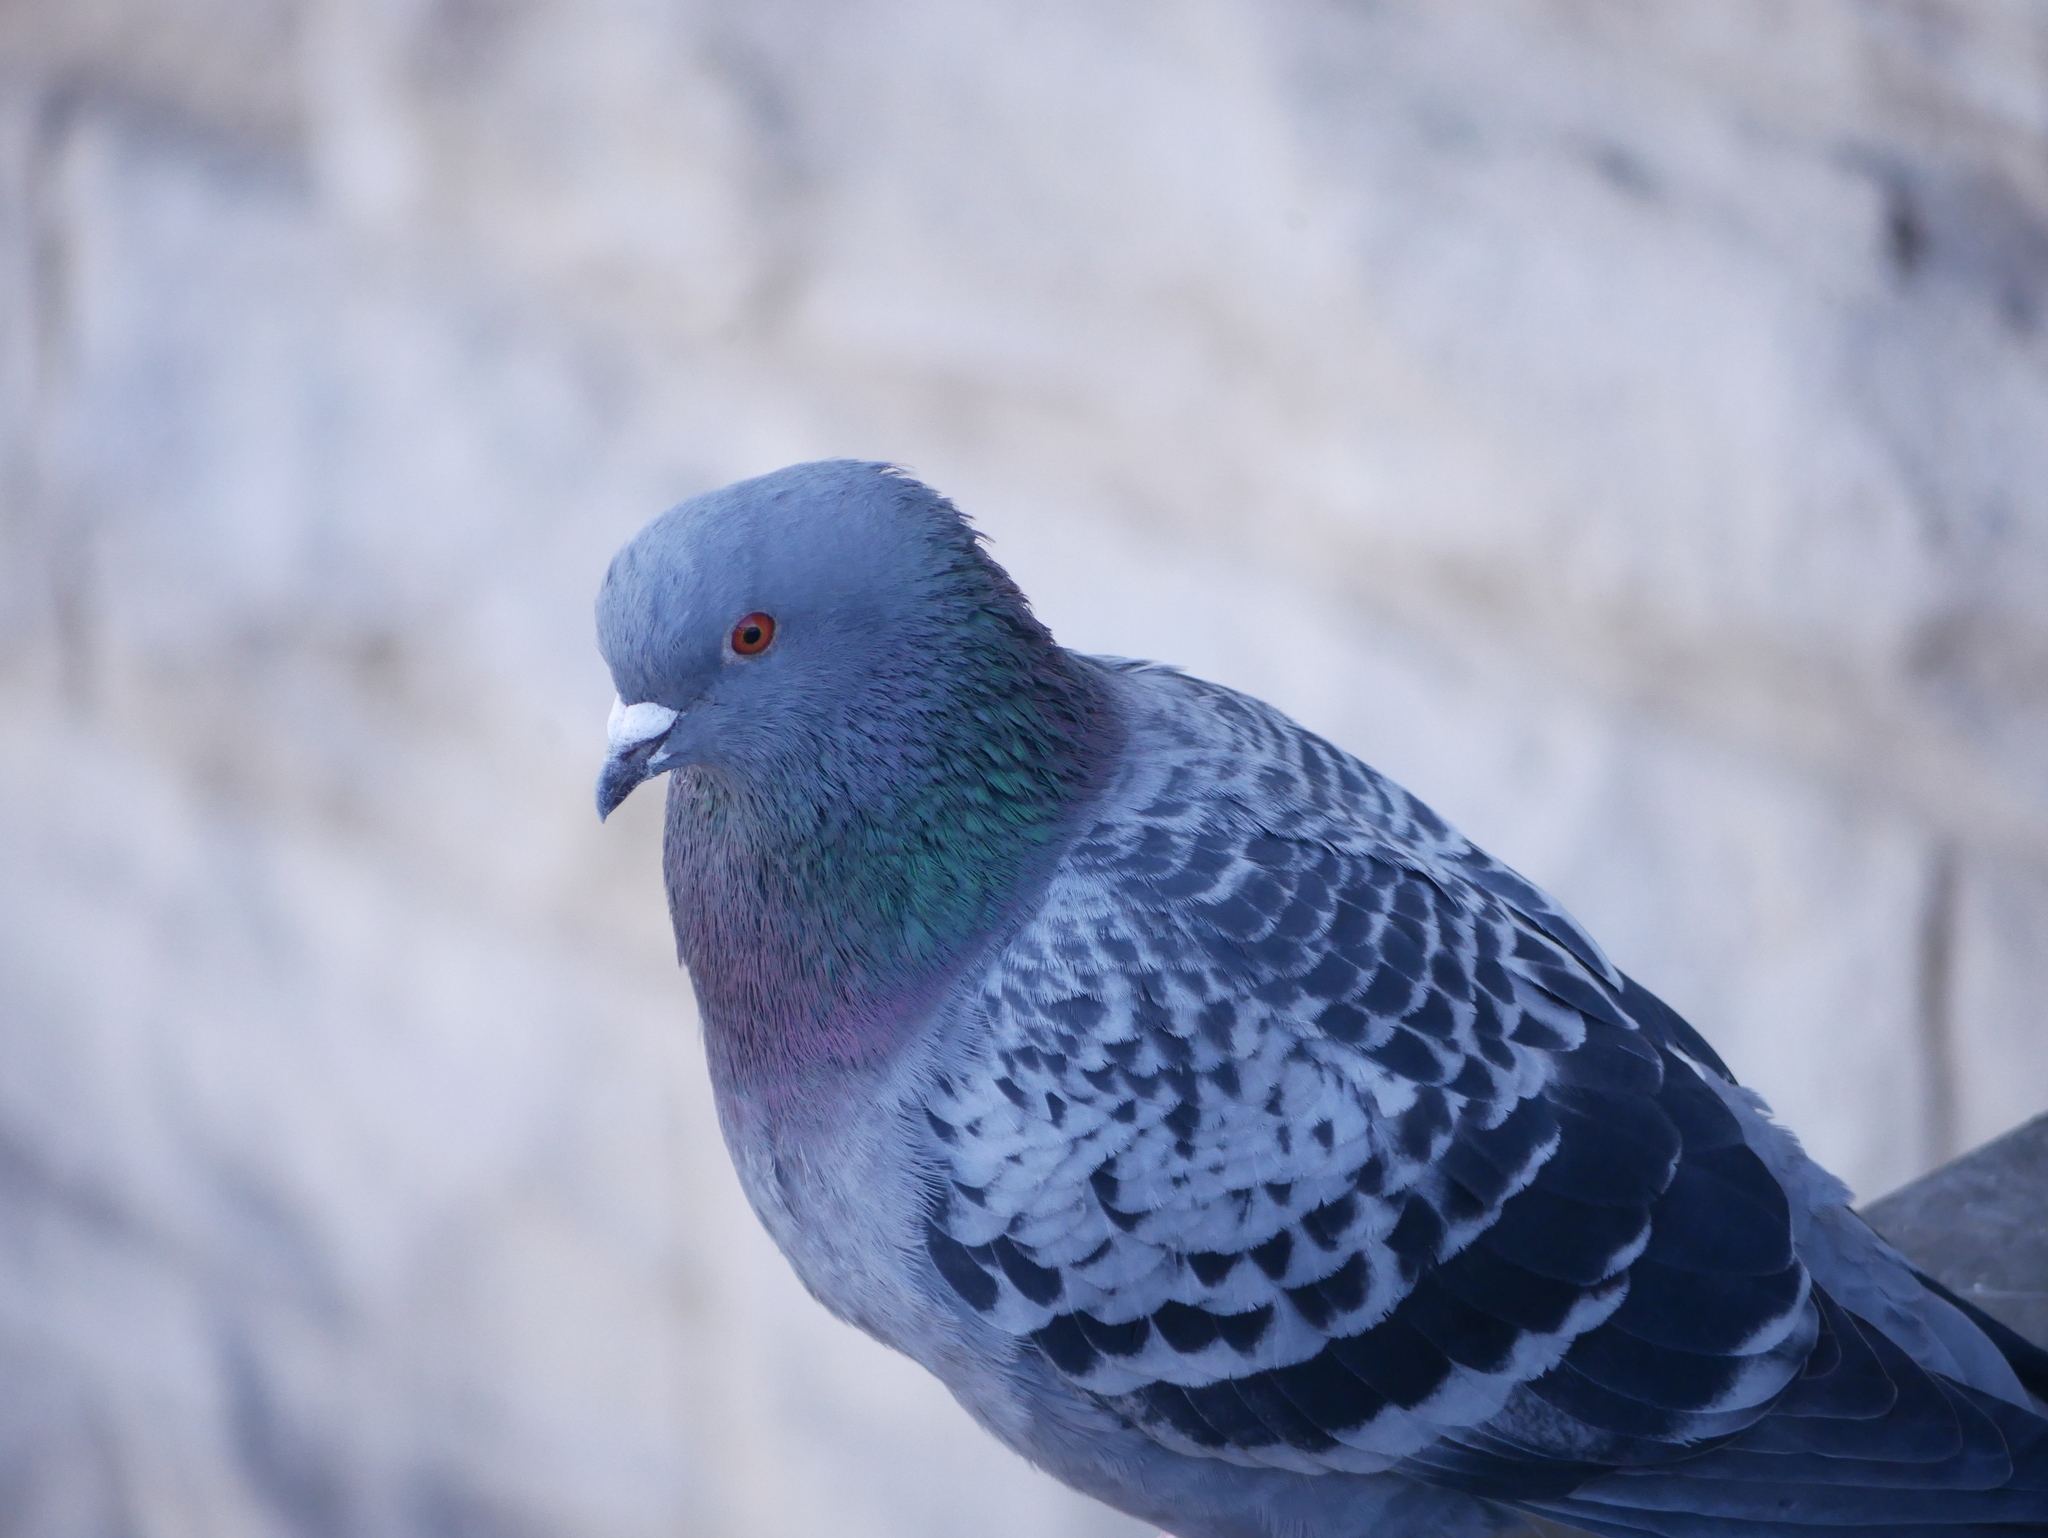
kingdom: Animalia
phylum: Chordata
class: Aves
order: Columbiformes
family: Columbidae
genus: Columba
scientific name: Columba livia
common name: Rock pigeon
